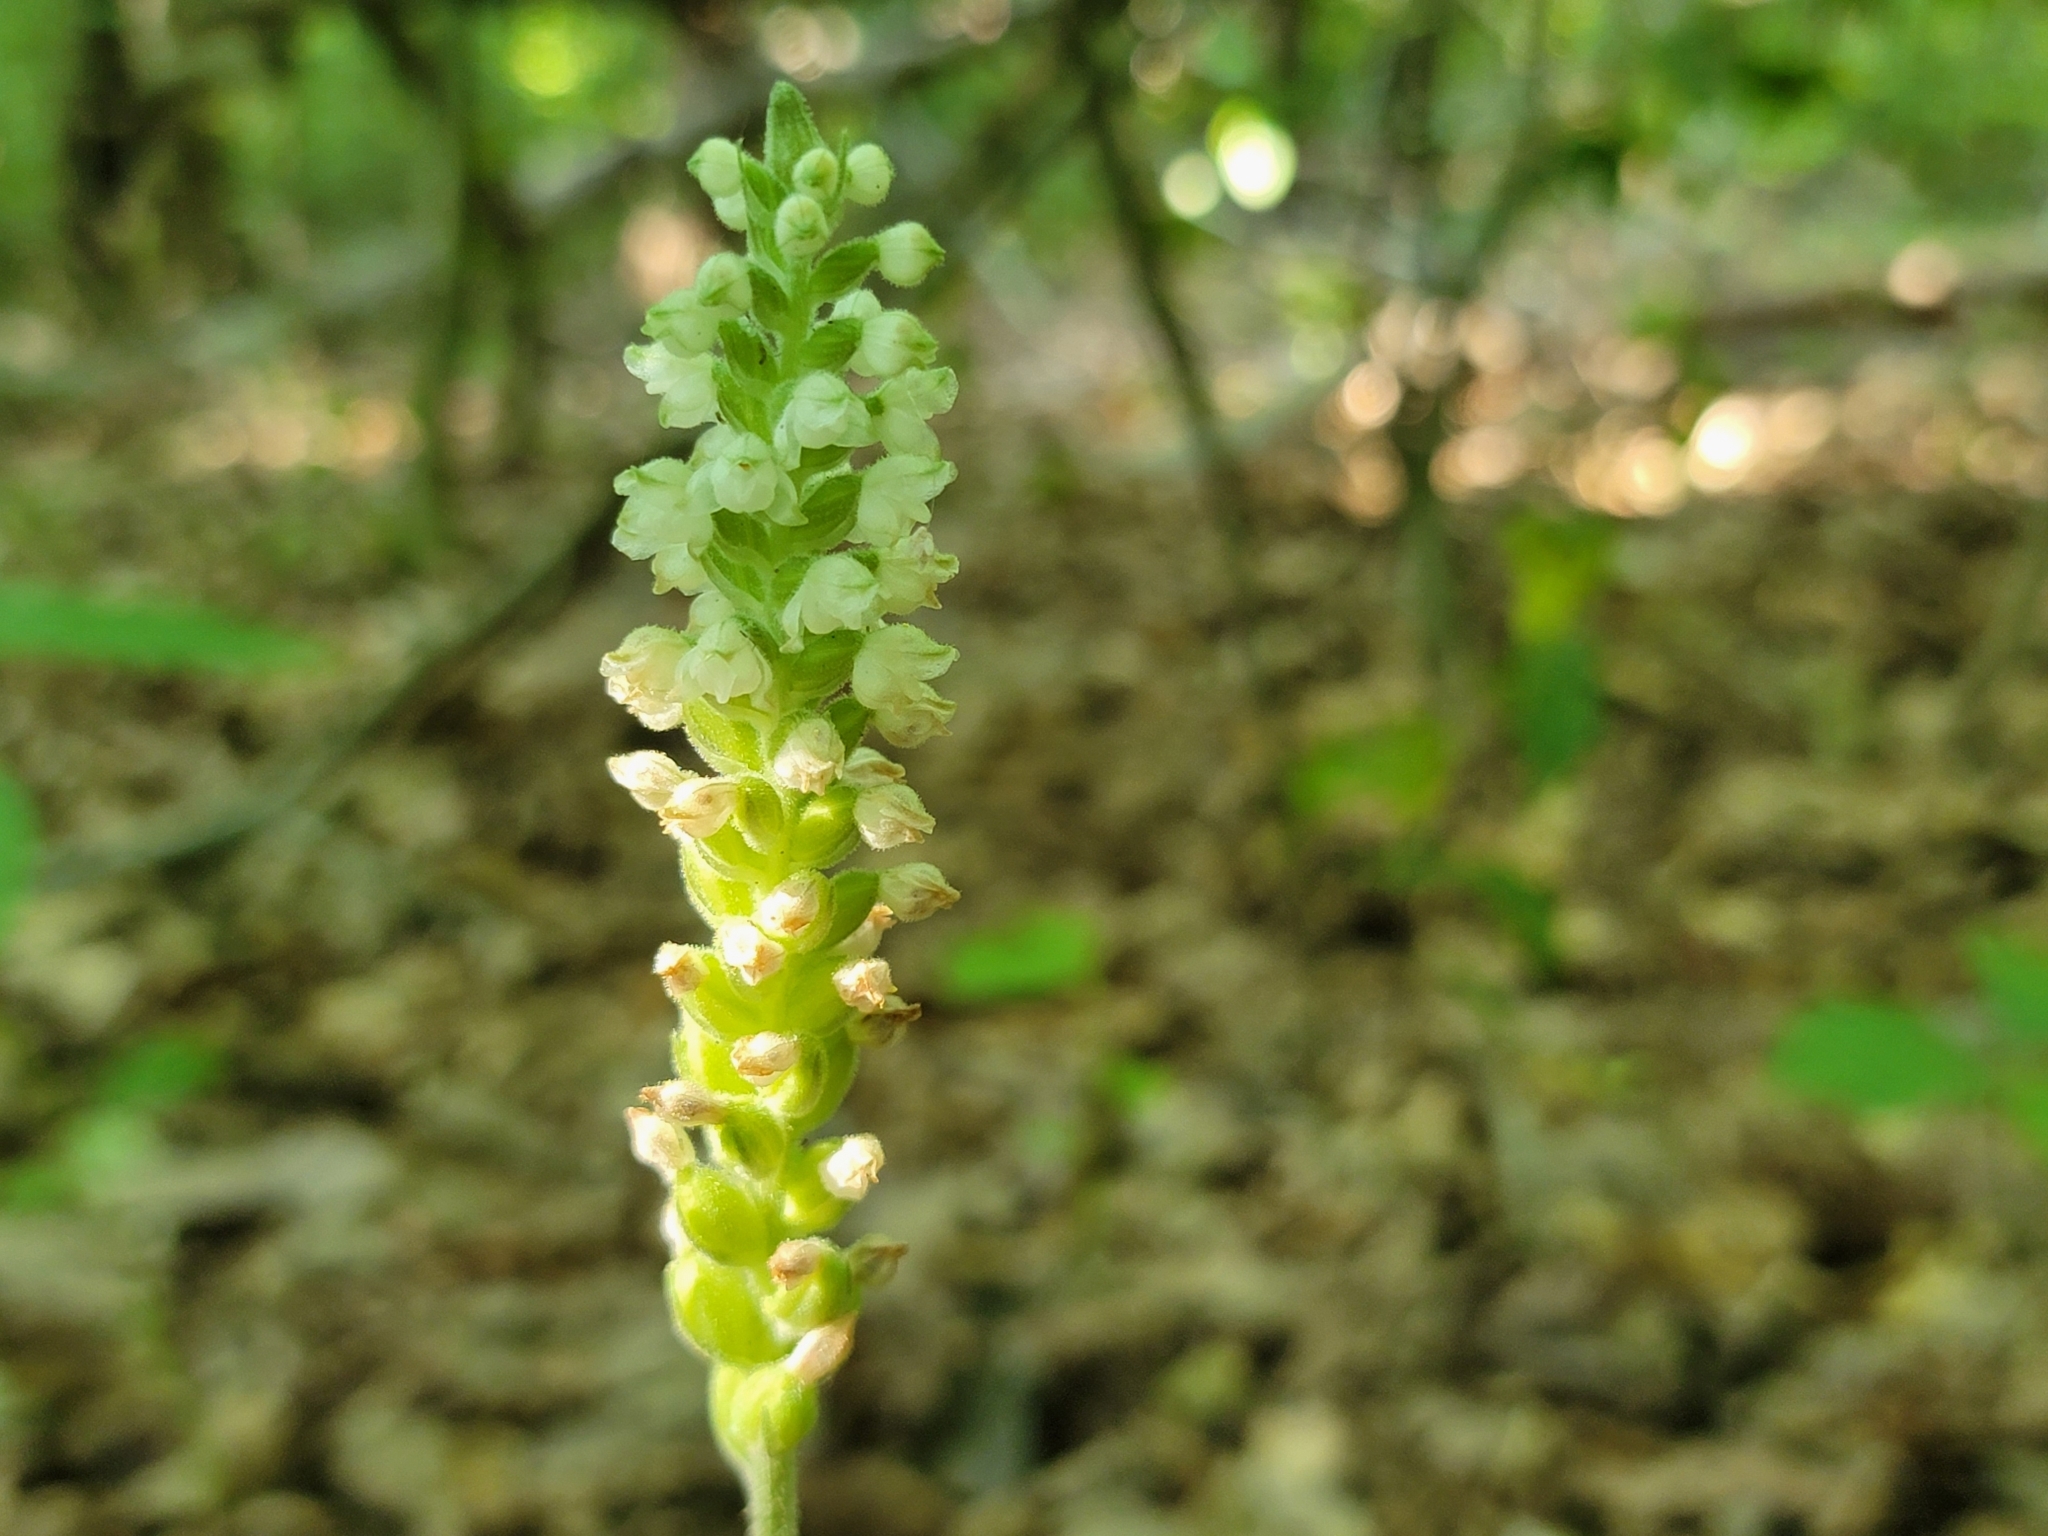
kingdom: Plantae
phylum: Tracheophyta
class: Liliopsida
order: Asparagales
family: Orchidaceae
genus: Goodyera
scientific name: Goodyera pubescens
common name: Downy rattlesnake-plantain
